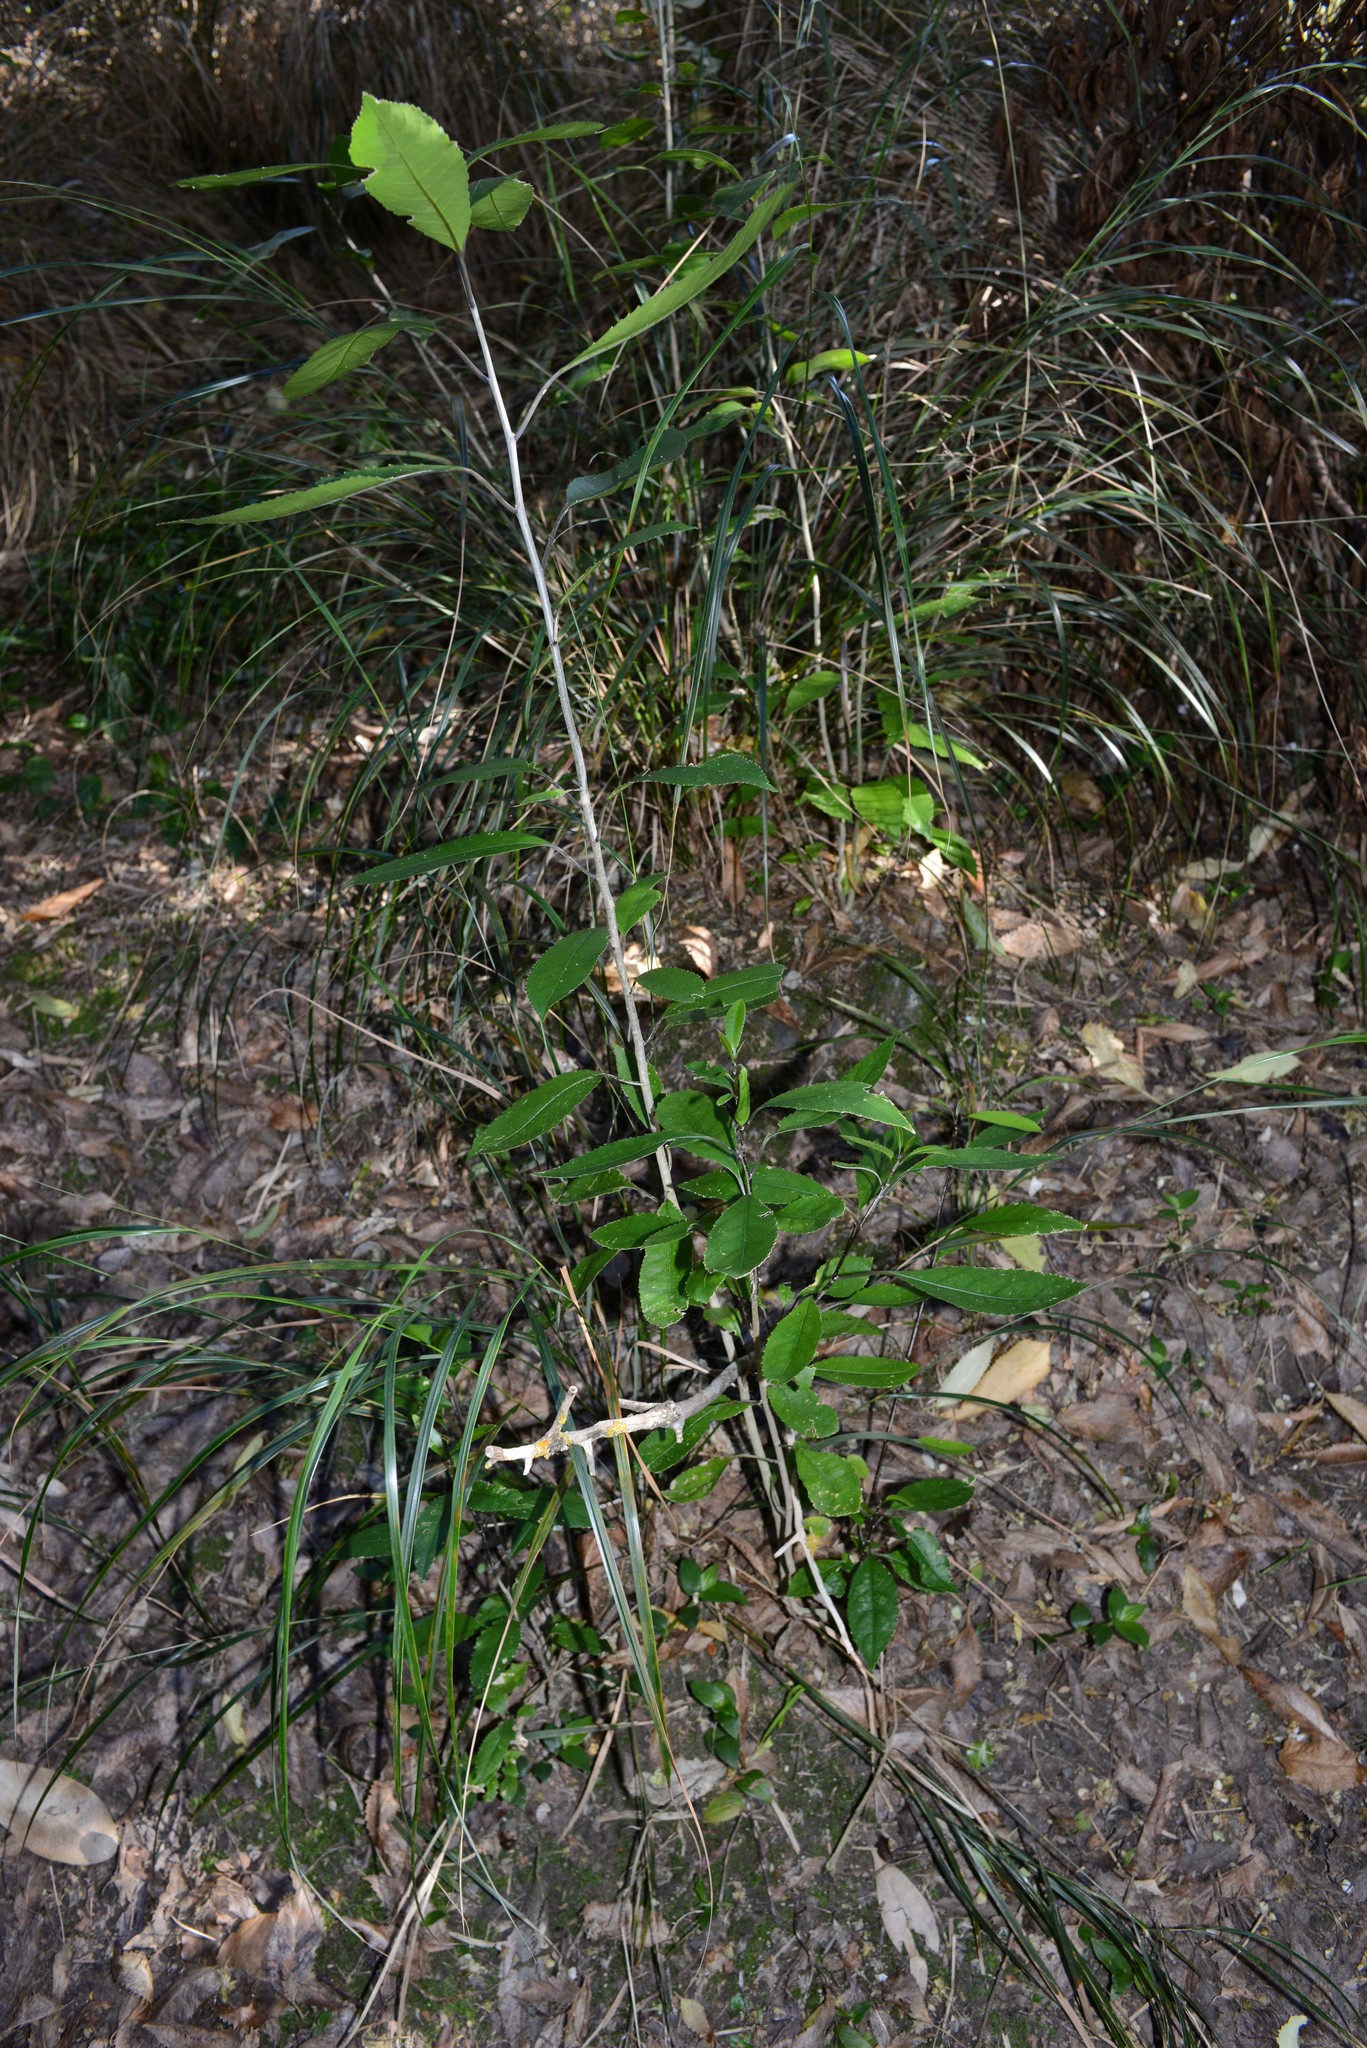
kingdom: Plantae
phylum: Tracheophyta
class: Magnoliopsida
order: Malpighiales
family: Violaceae
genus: Melicytus
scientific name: Melicytus ramiflorus
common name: Mahoe
